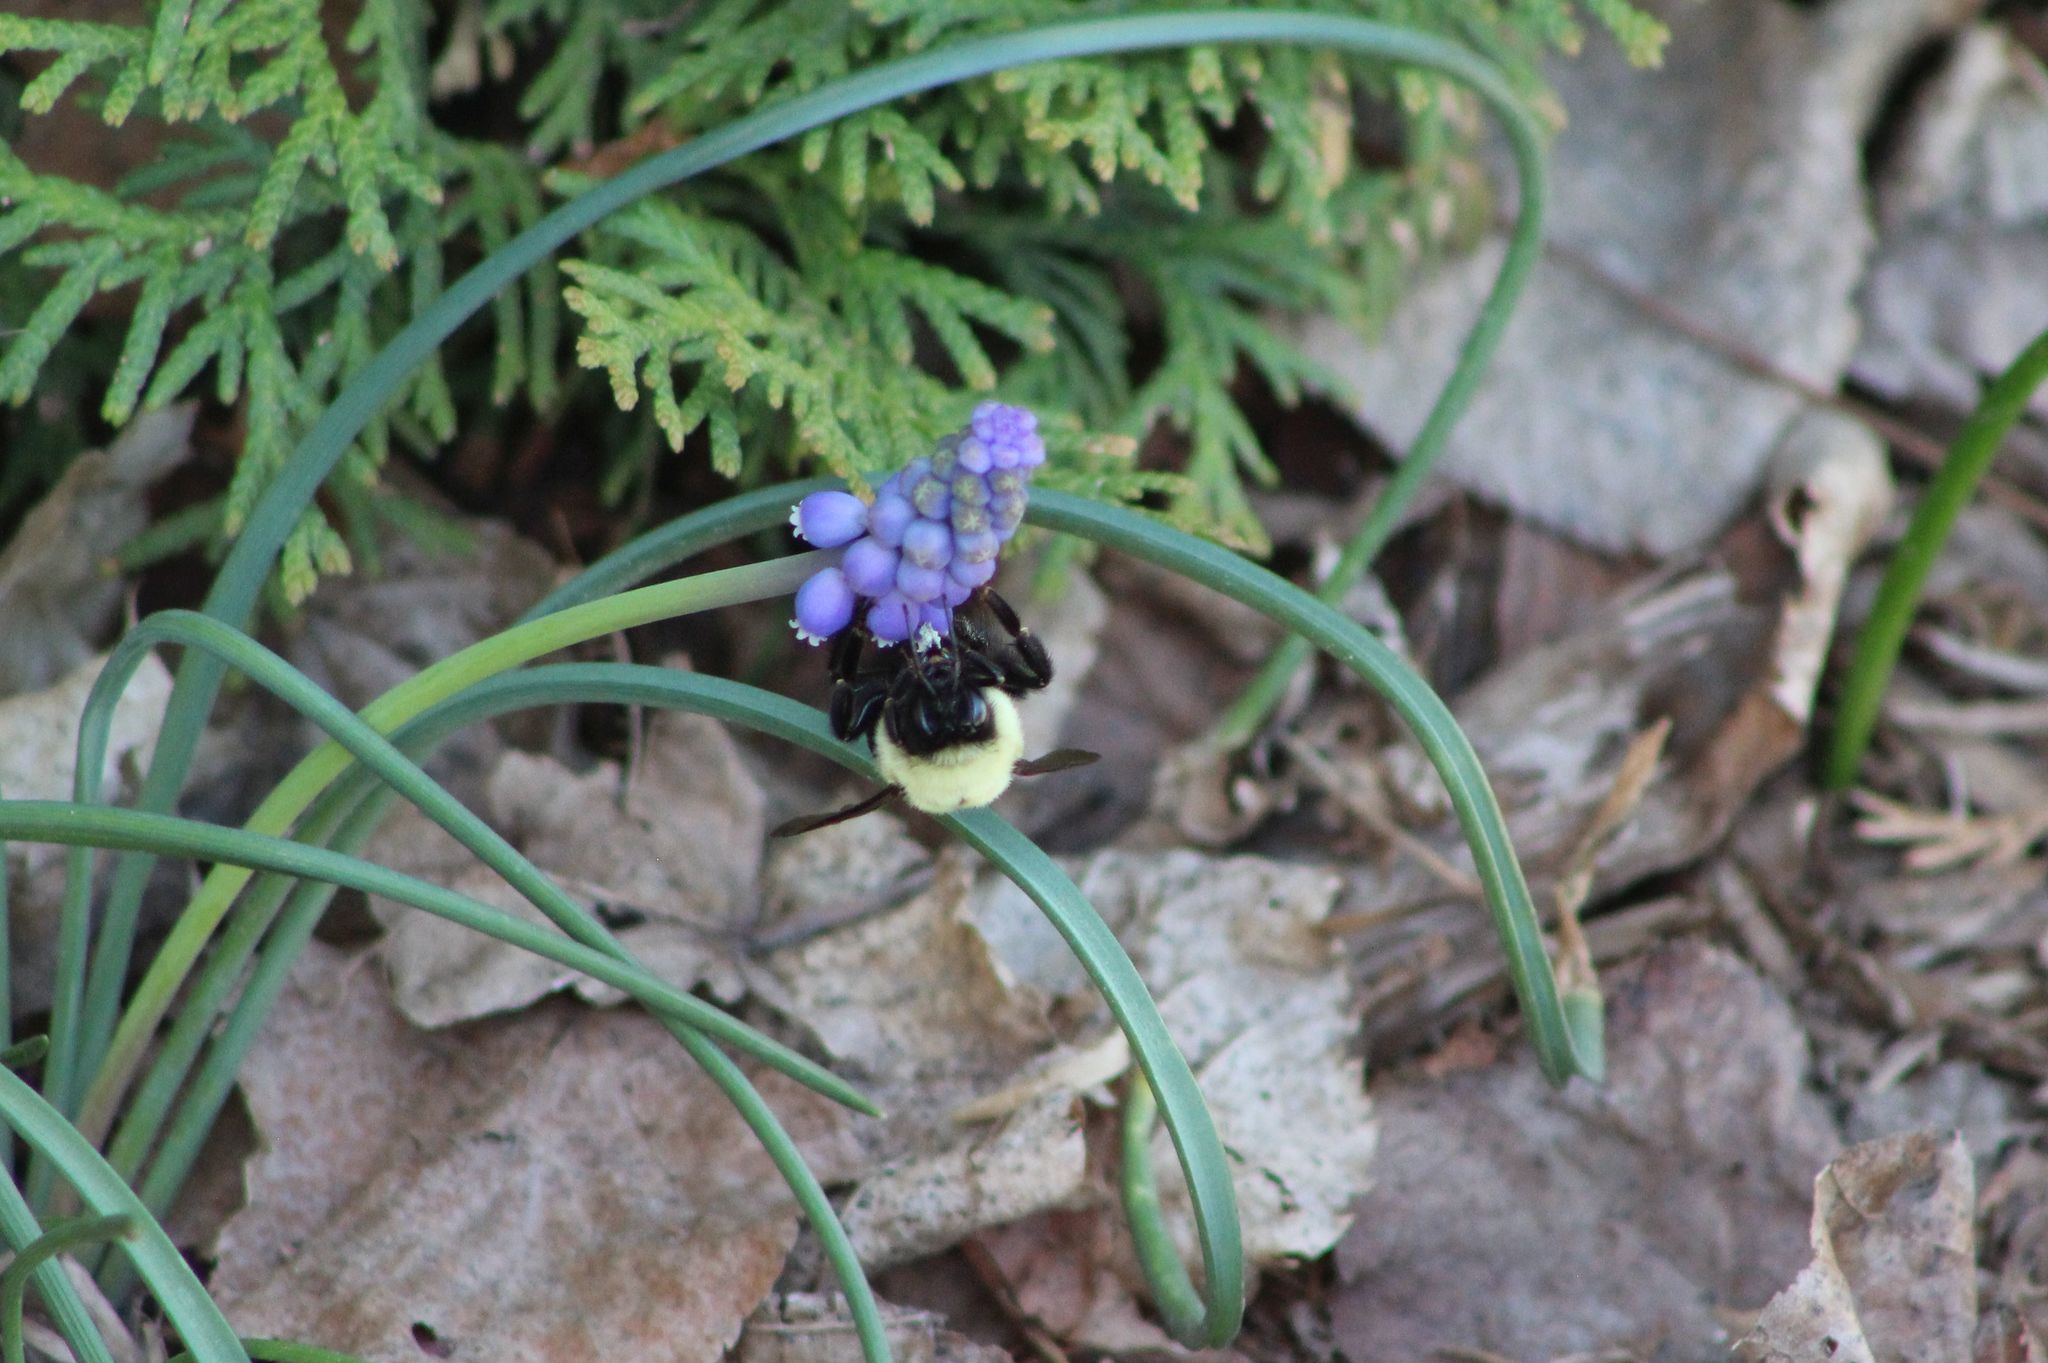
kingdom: Animalia
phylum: Arthropoda
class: Insecta
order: Hymenoptera
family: Apidae
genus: Pyrobombus
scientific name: Pyrobombus
